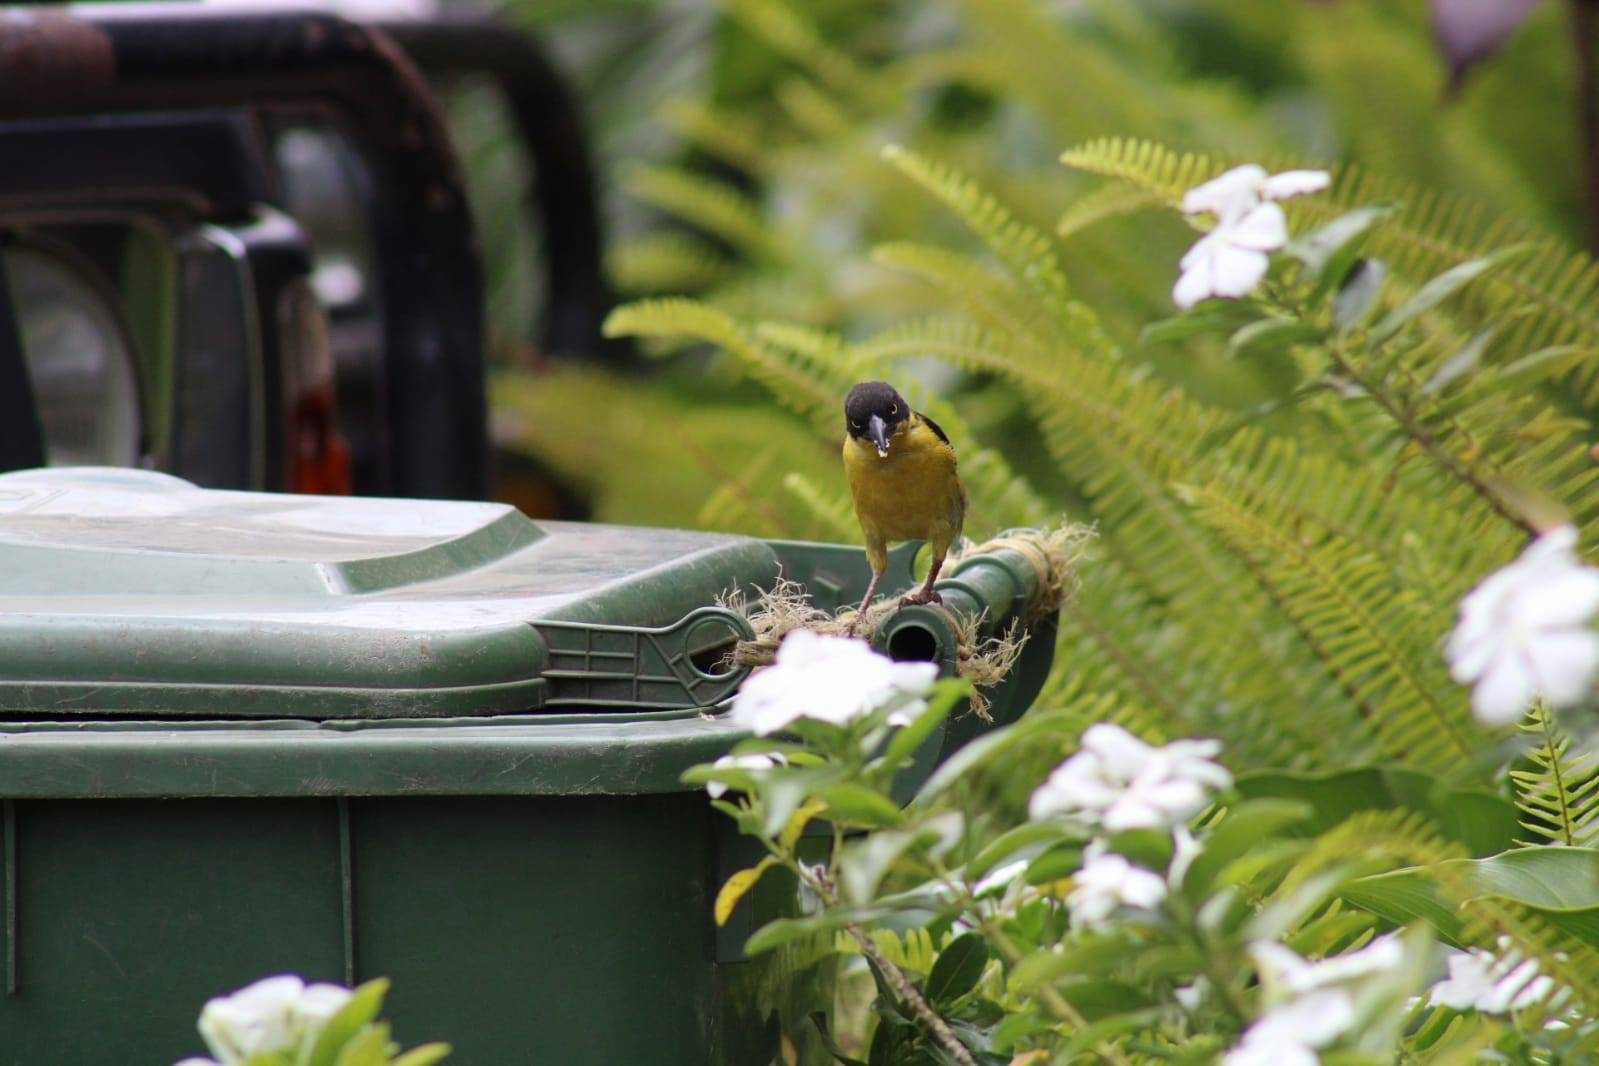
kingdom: Animalia
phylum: Chordata
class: Aves
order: Passeriformes
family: Ploceidae
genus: Ploceus
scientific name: Ploceus baglafecht
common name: Baglafecht weaver
